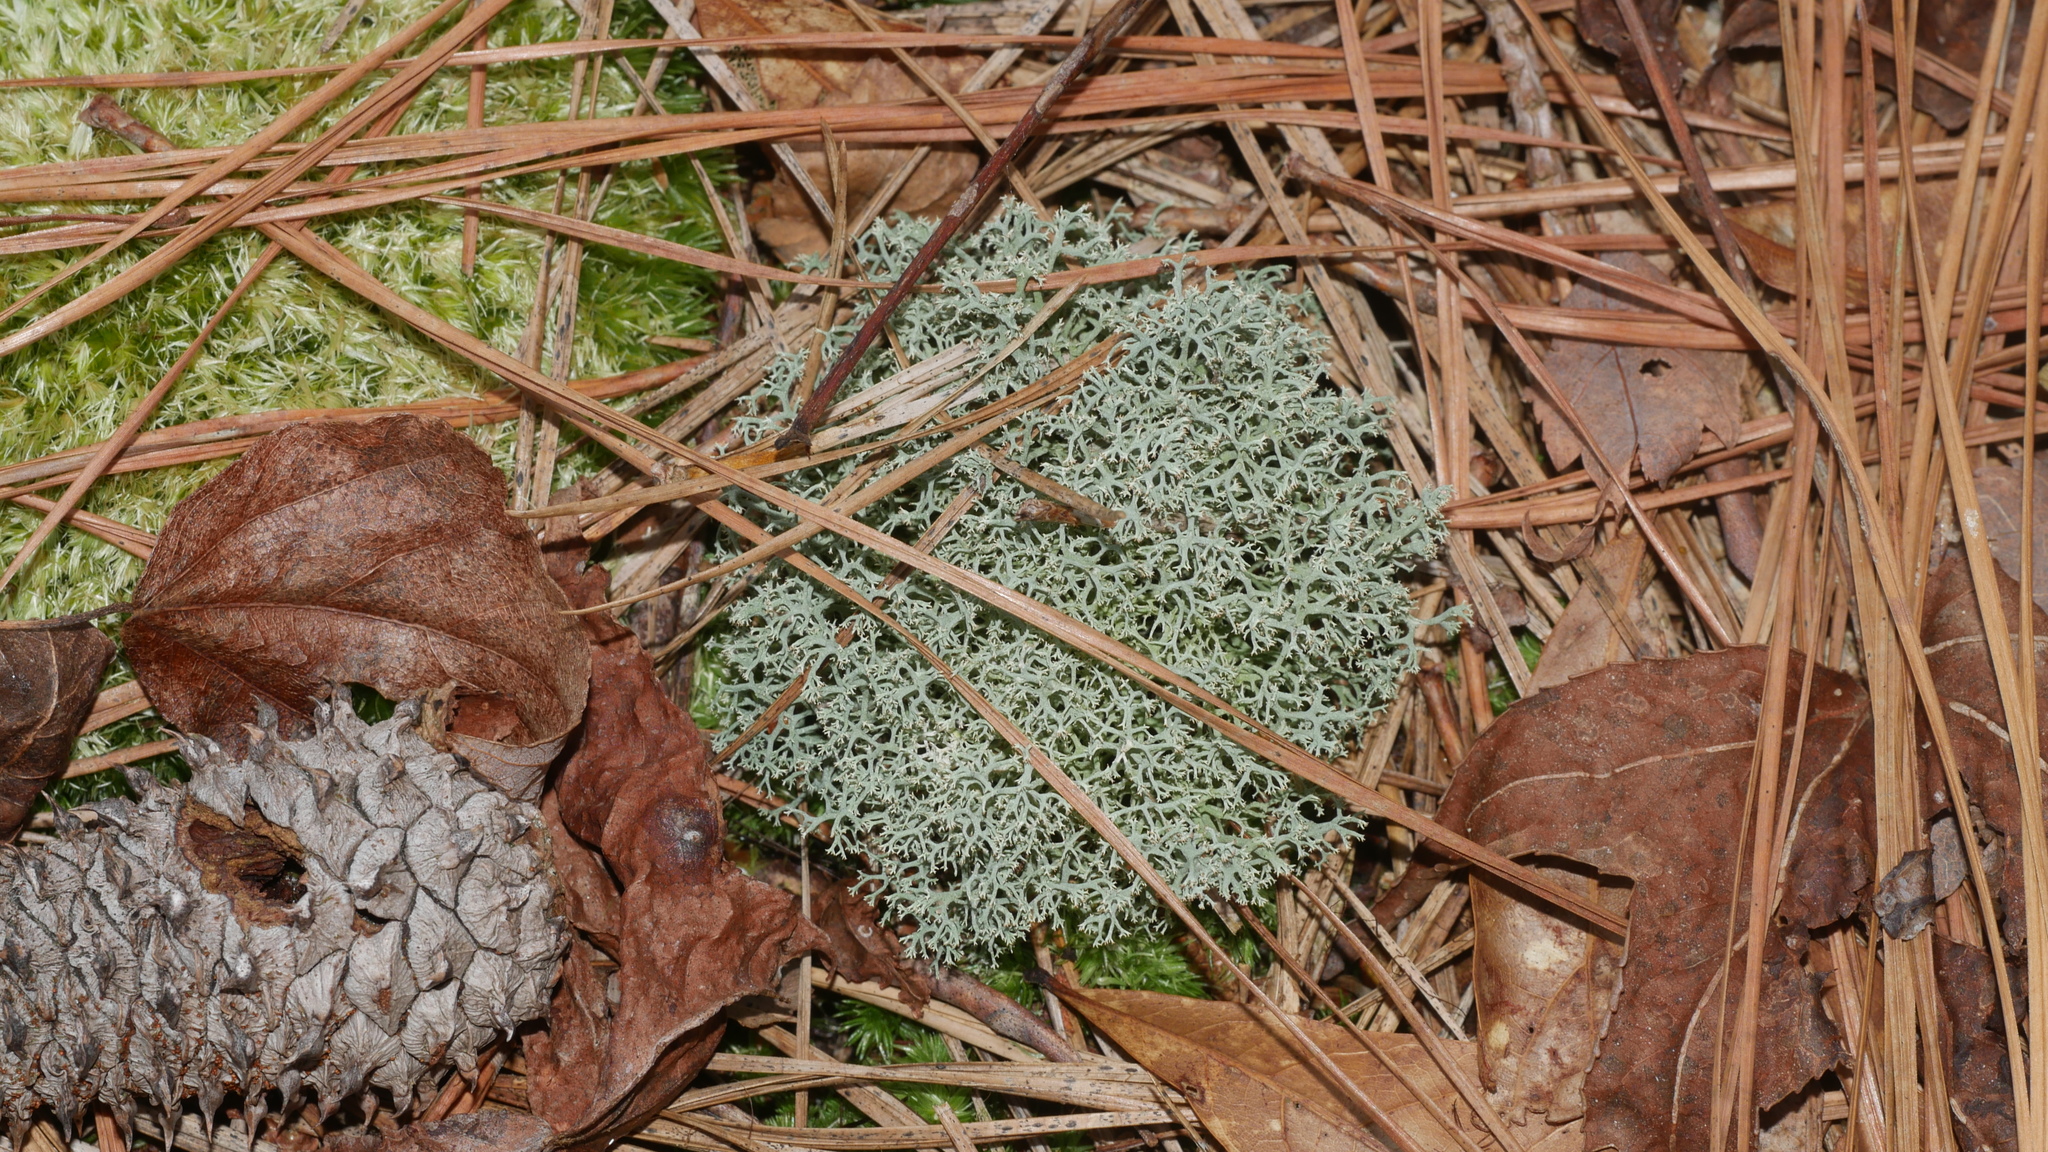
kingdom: Fungi
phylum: Ascomycota
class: Lecanoromycetes
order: Lecanorales
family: Cladoniaceae
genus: Cladonia
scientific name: Cladonia subtenuis
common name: Dixie reindeer lichen
